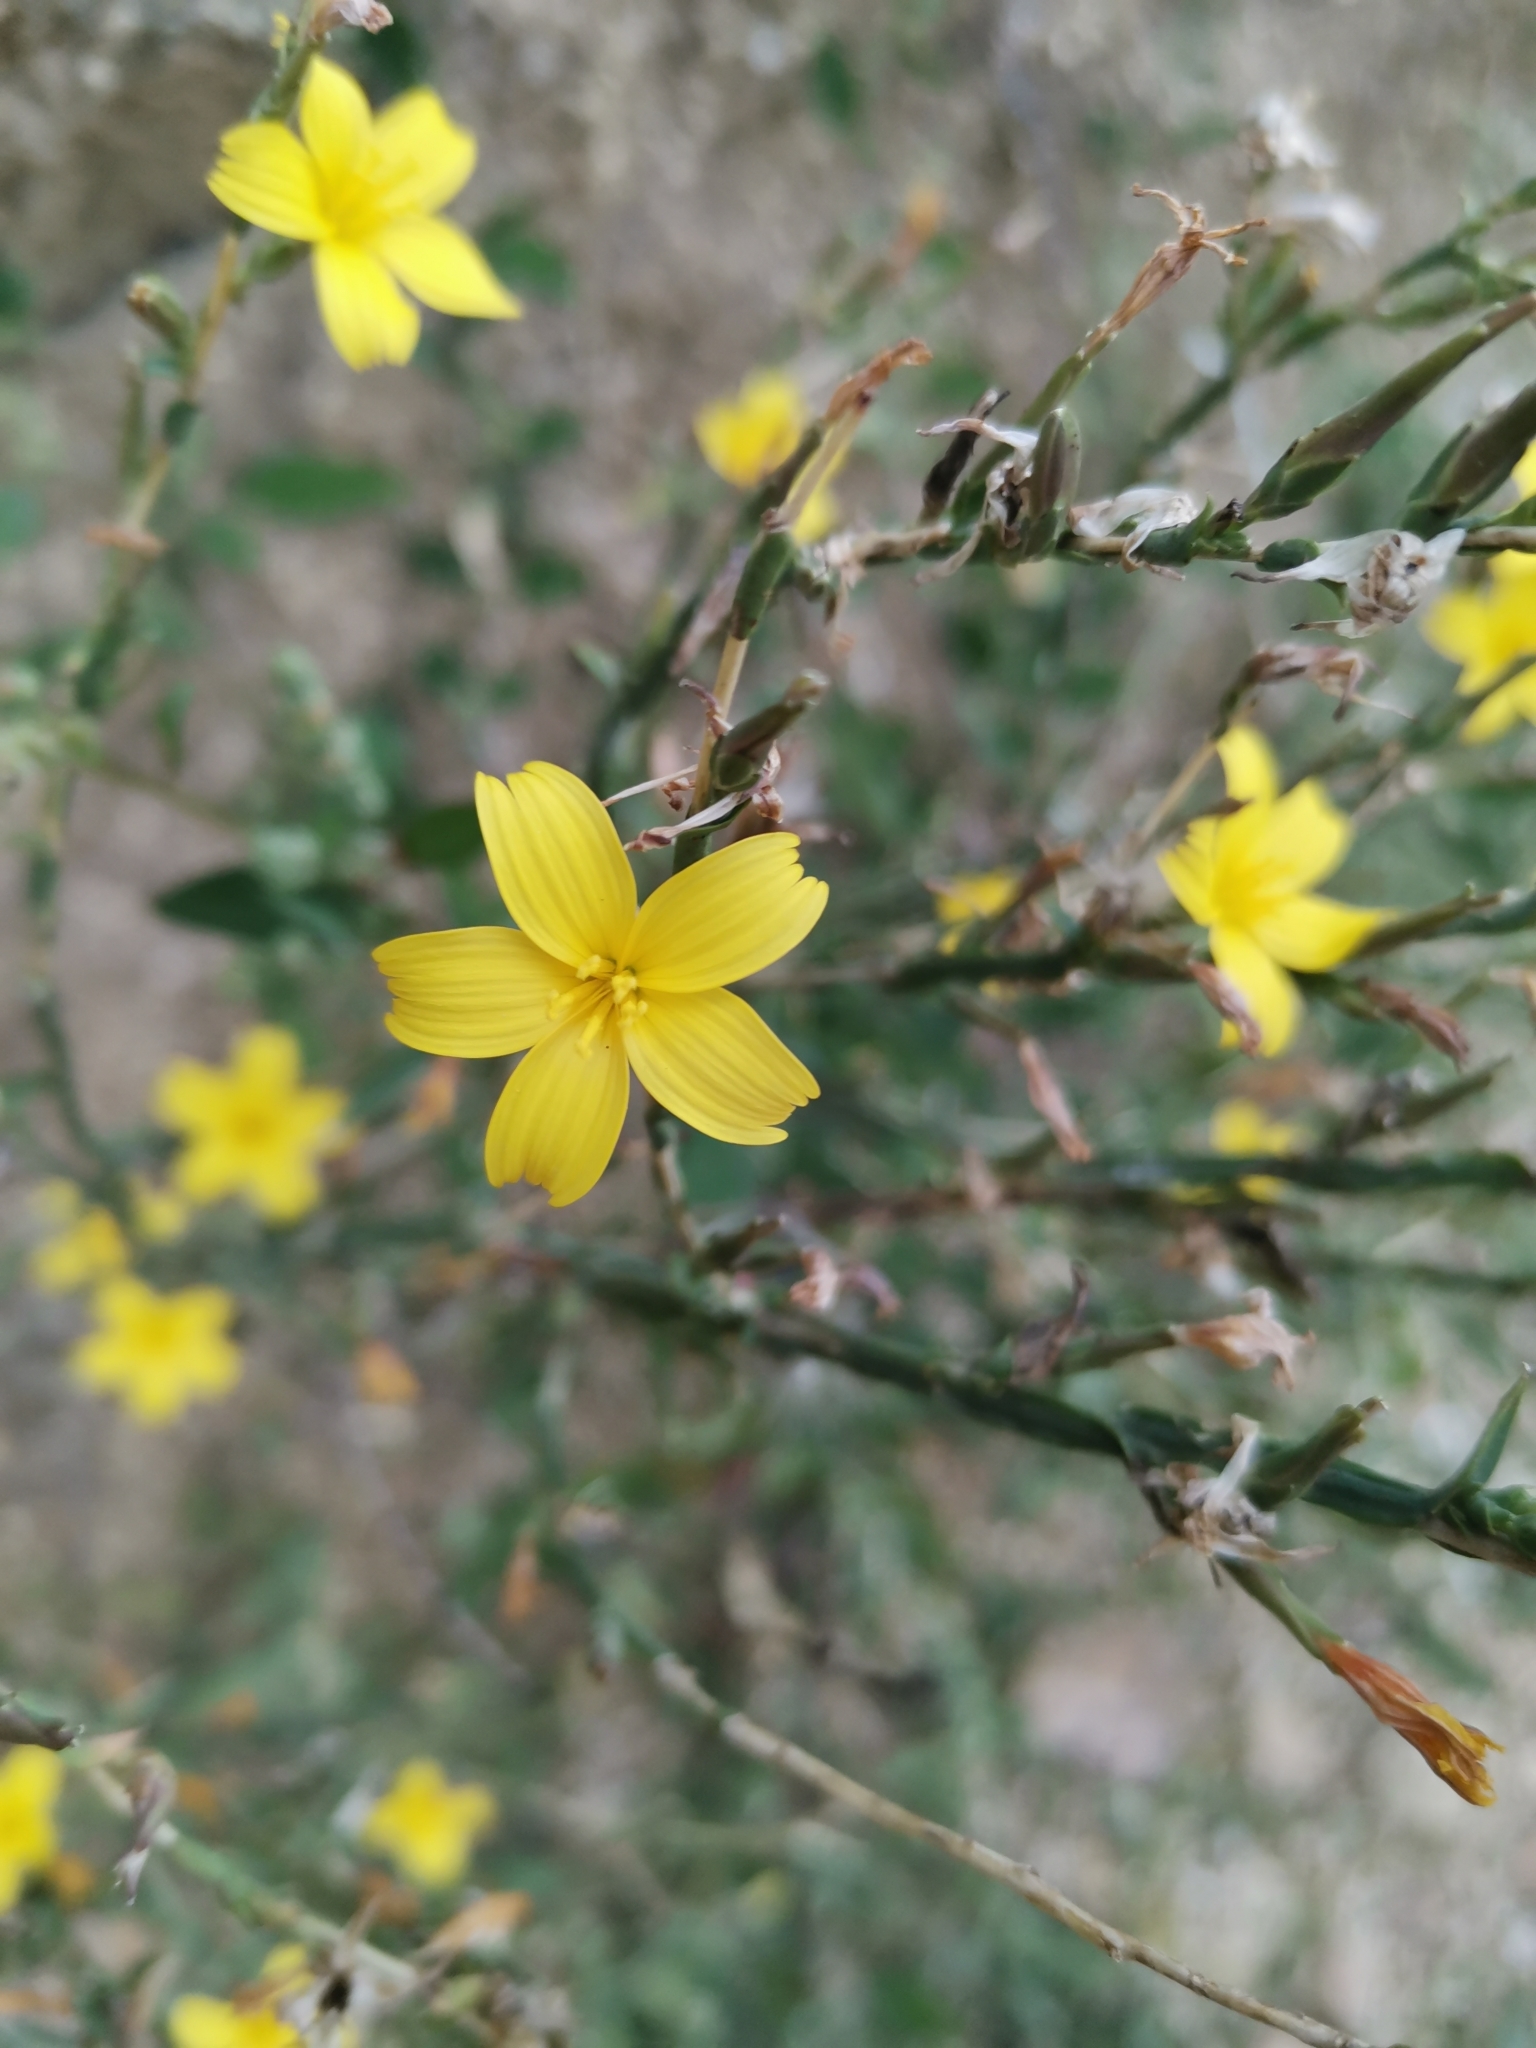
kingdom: Plantae
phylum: Tracheophyta
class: Magnoliopsida
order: Asterales
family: Asteraceae
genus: Lactuca
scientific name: Lactuca viminea
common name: Pliant lettuce
